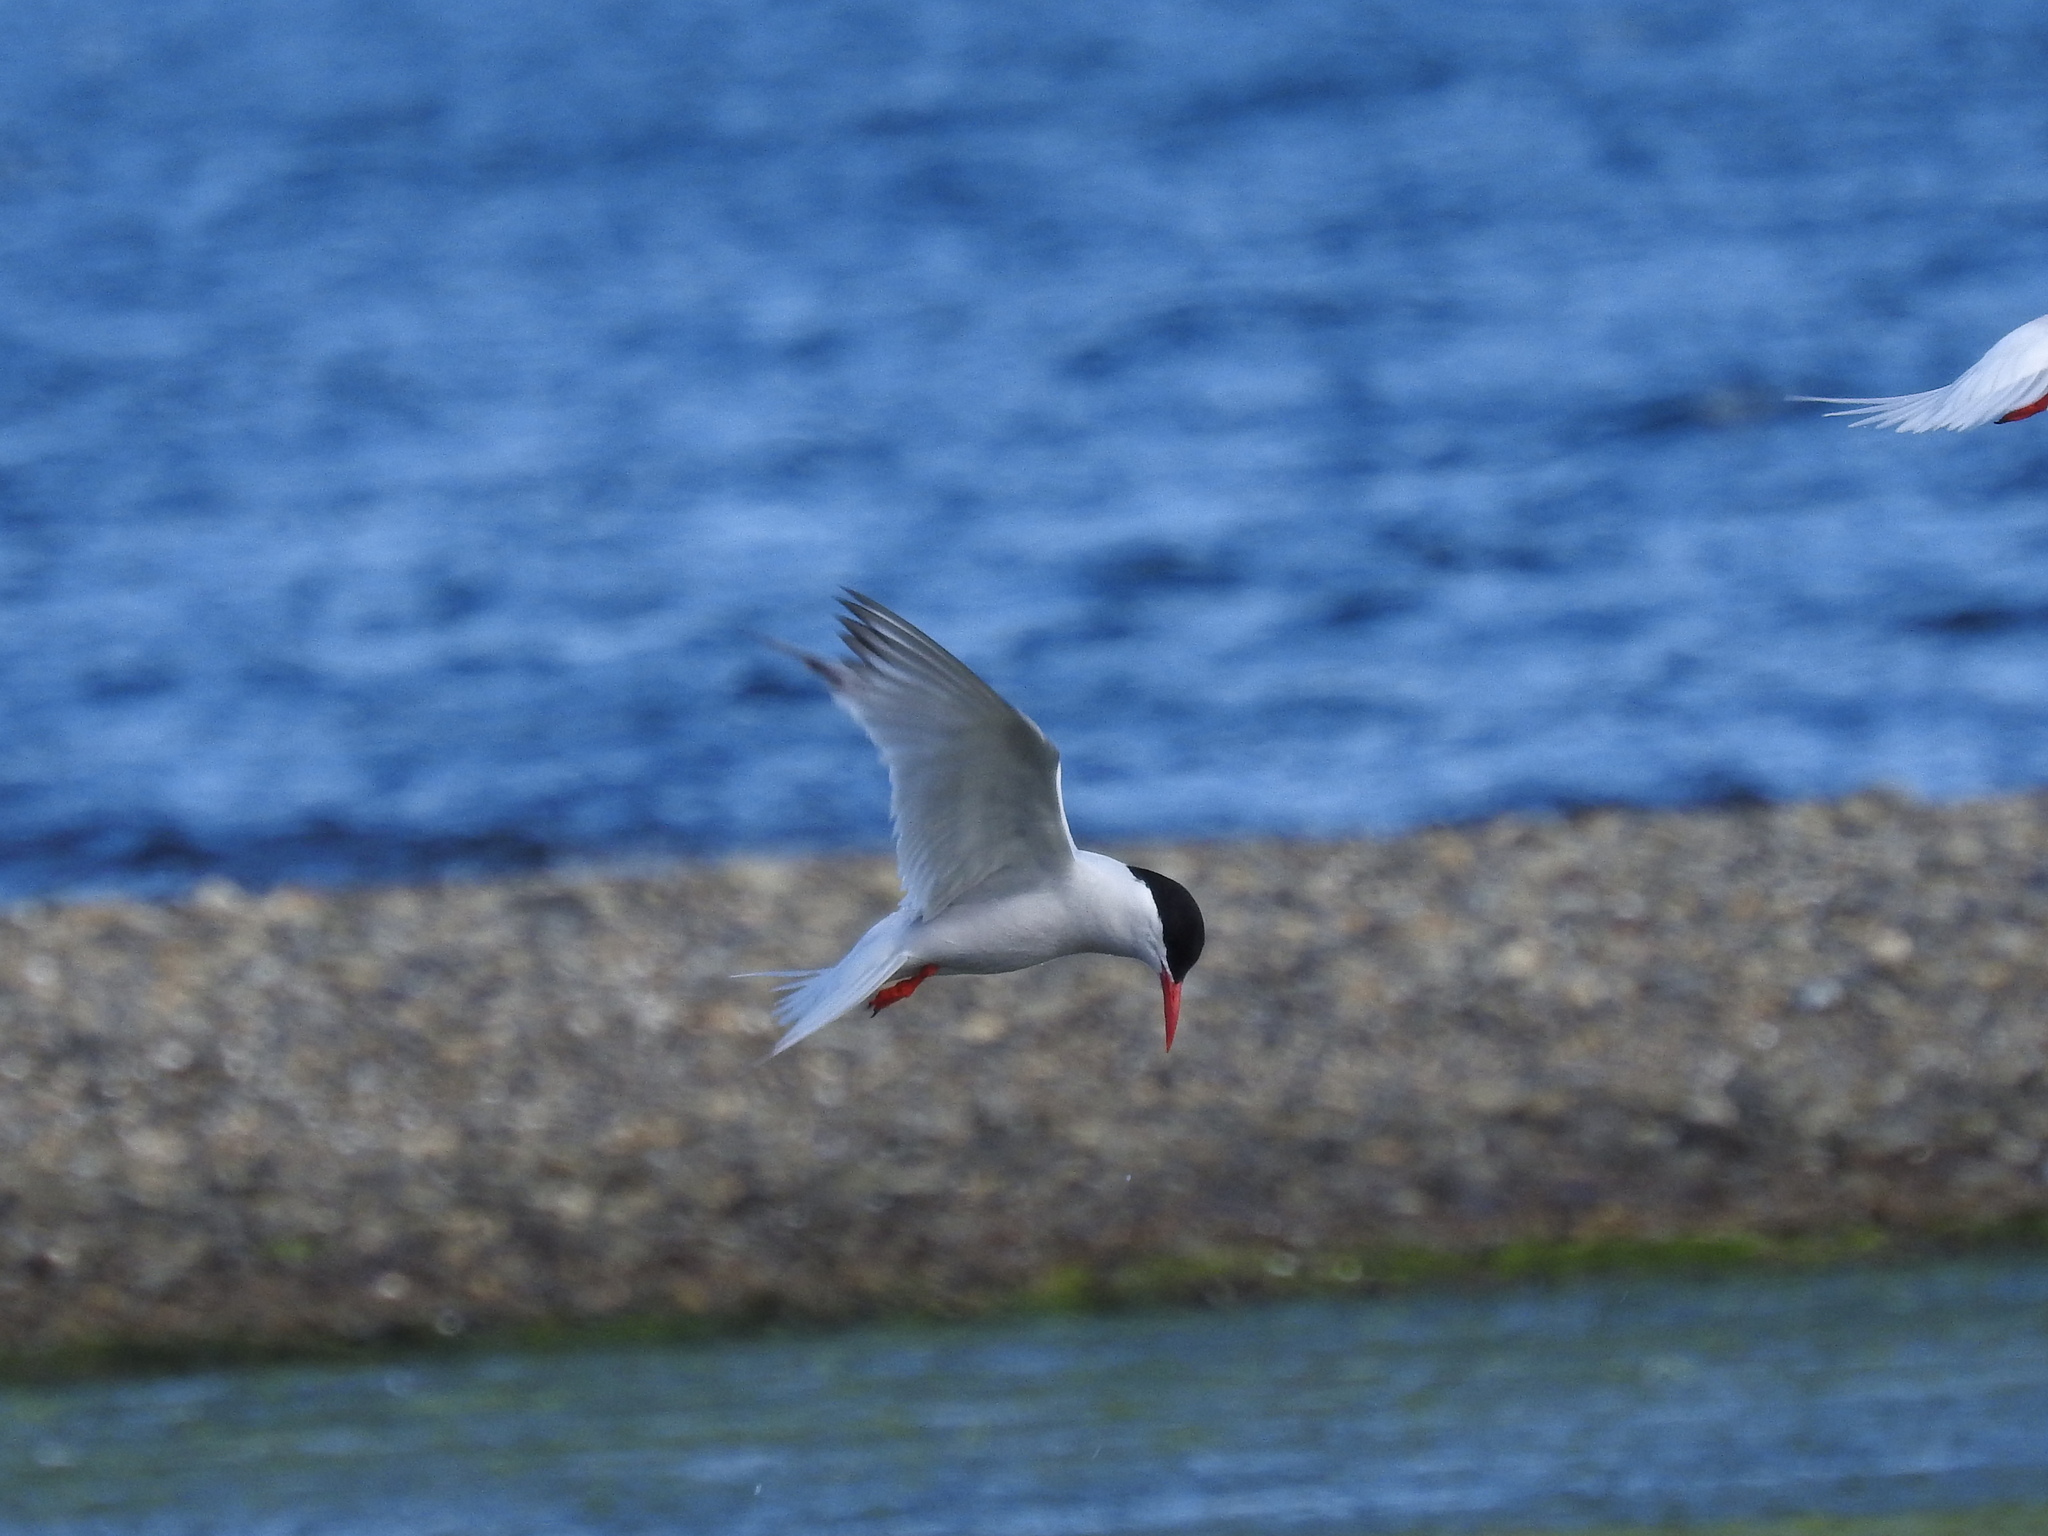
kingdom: Animalia
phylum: Chordata
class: Aves
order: Charadriiformes
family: Laridae
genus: Sterna
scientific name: Sterna hirundinacea
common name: South american tern
